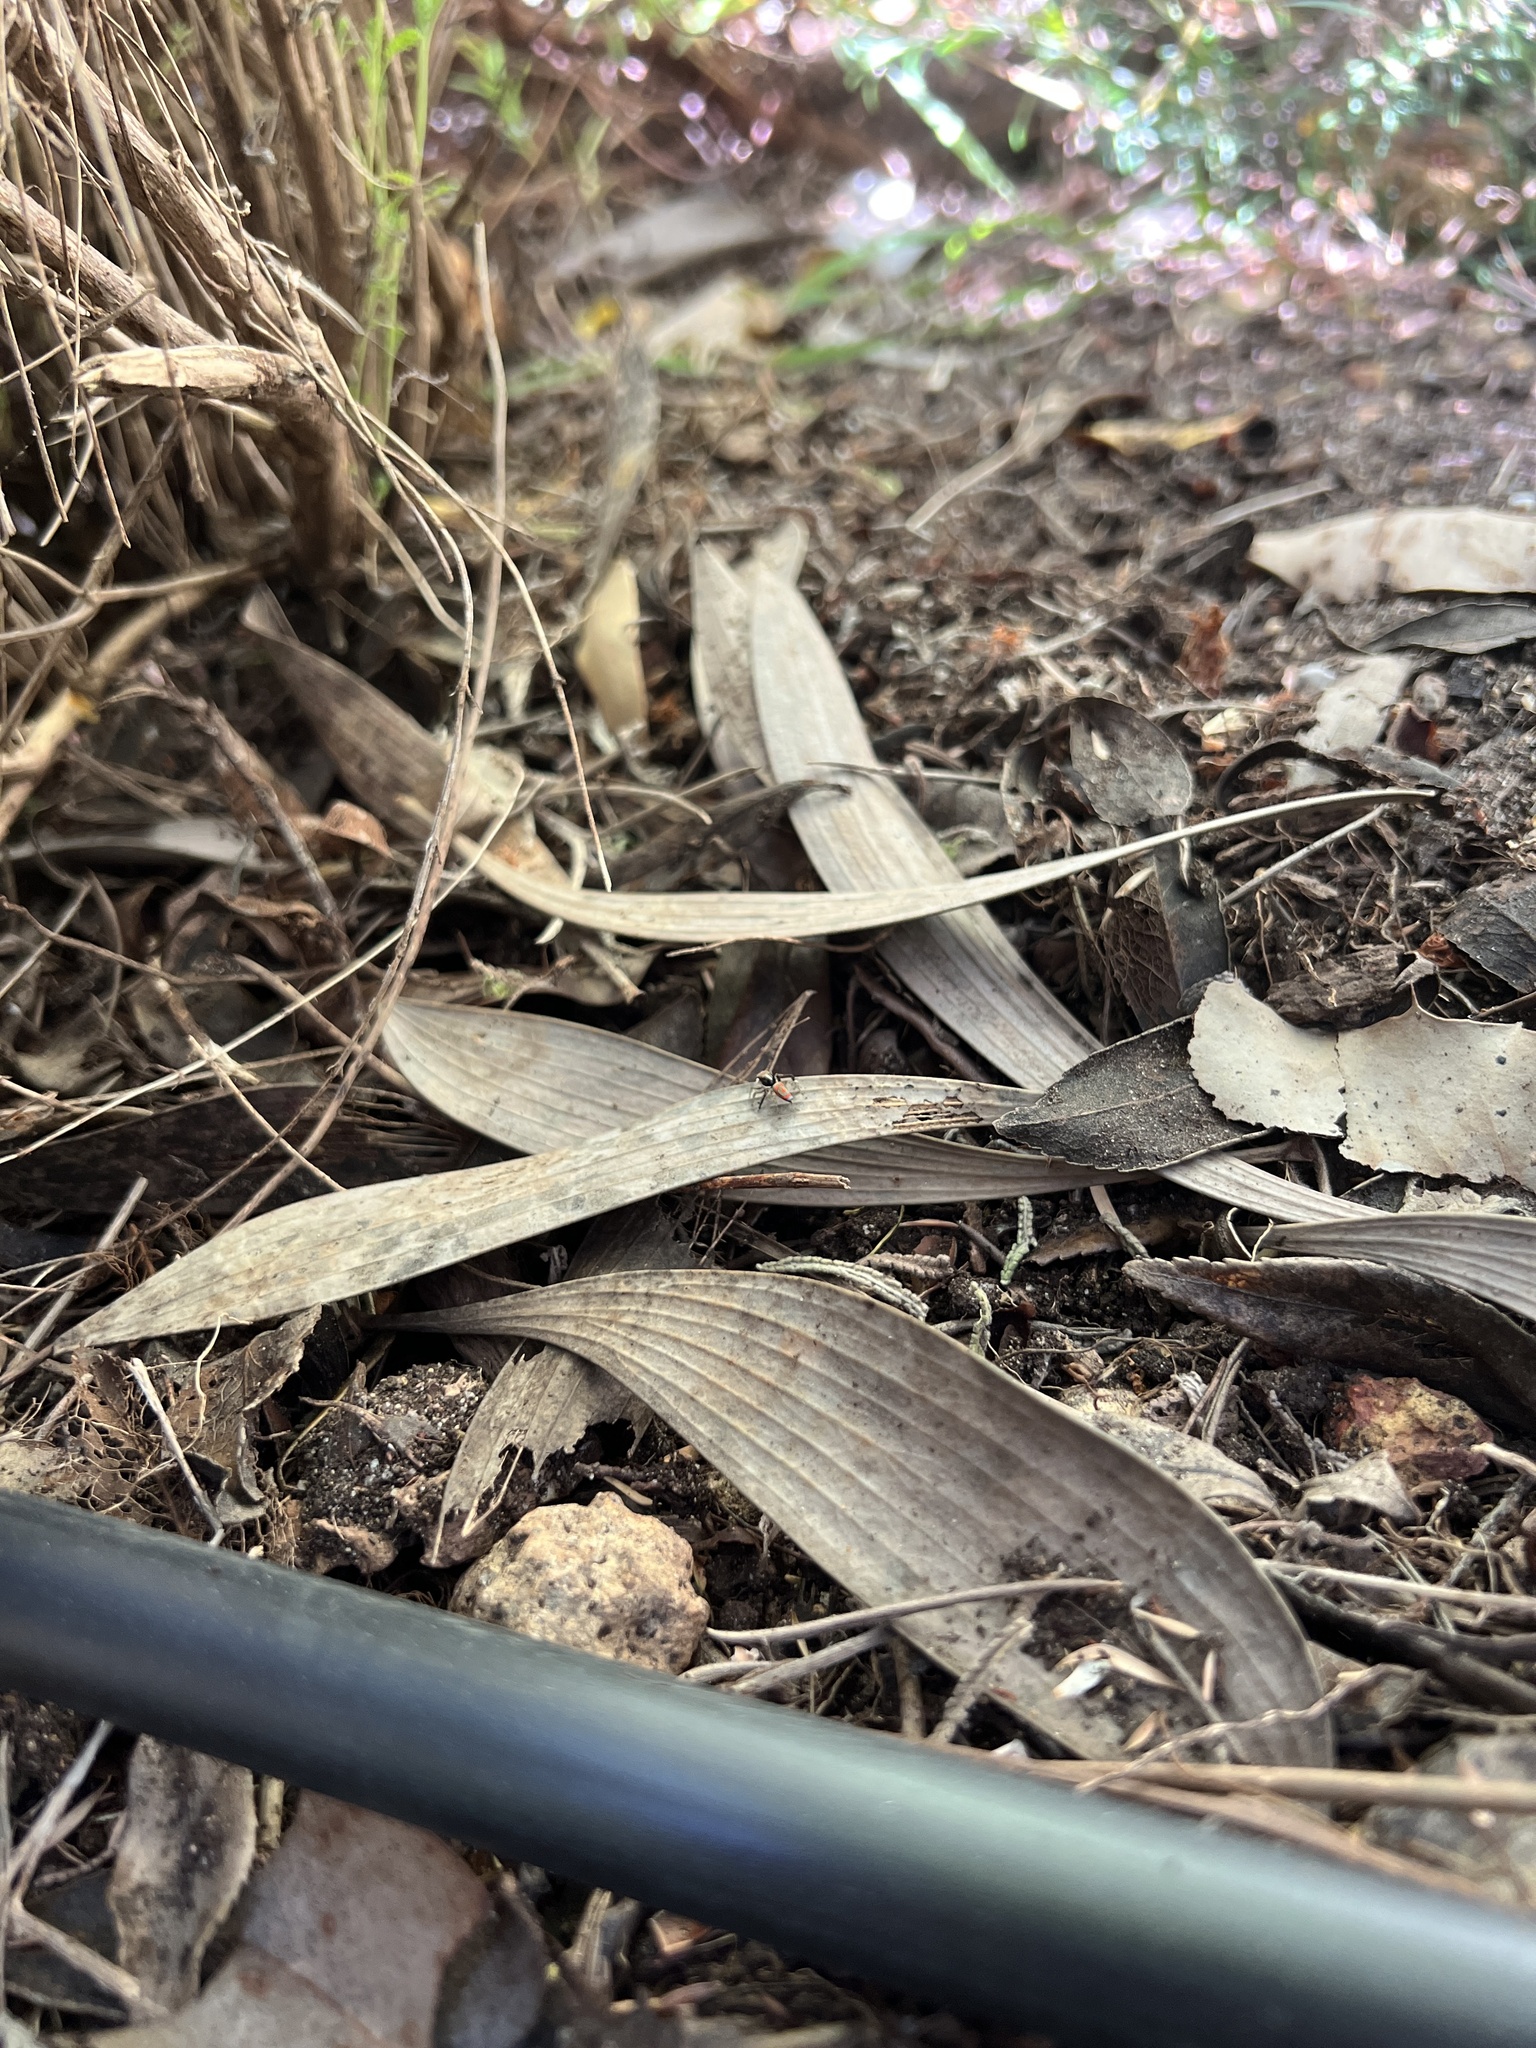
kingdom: Animalia
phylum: Arthropoda
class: Arachnida
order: Araneae
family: Salticidae
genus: Maratus
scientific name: Maratus pavonis
